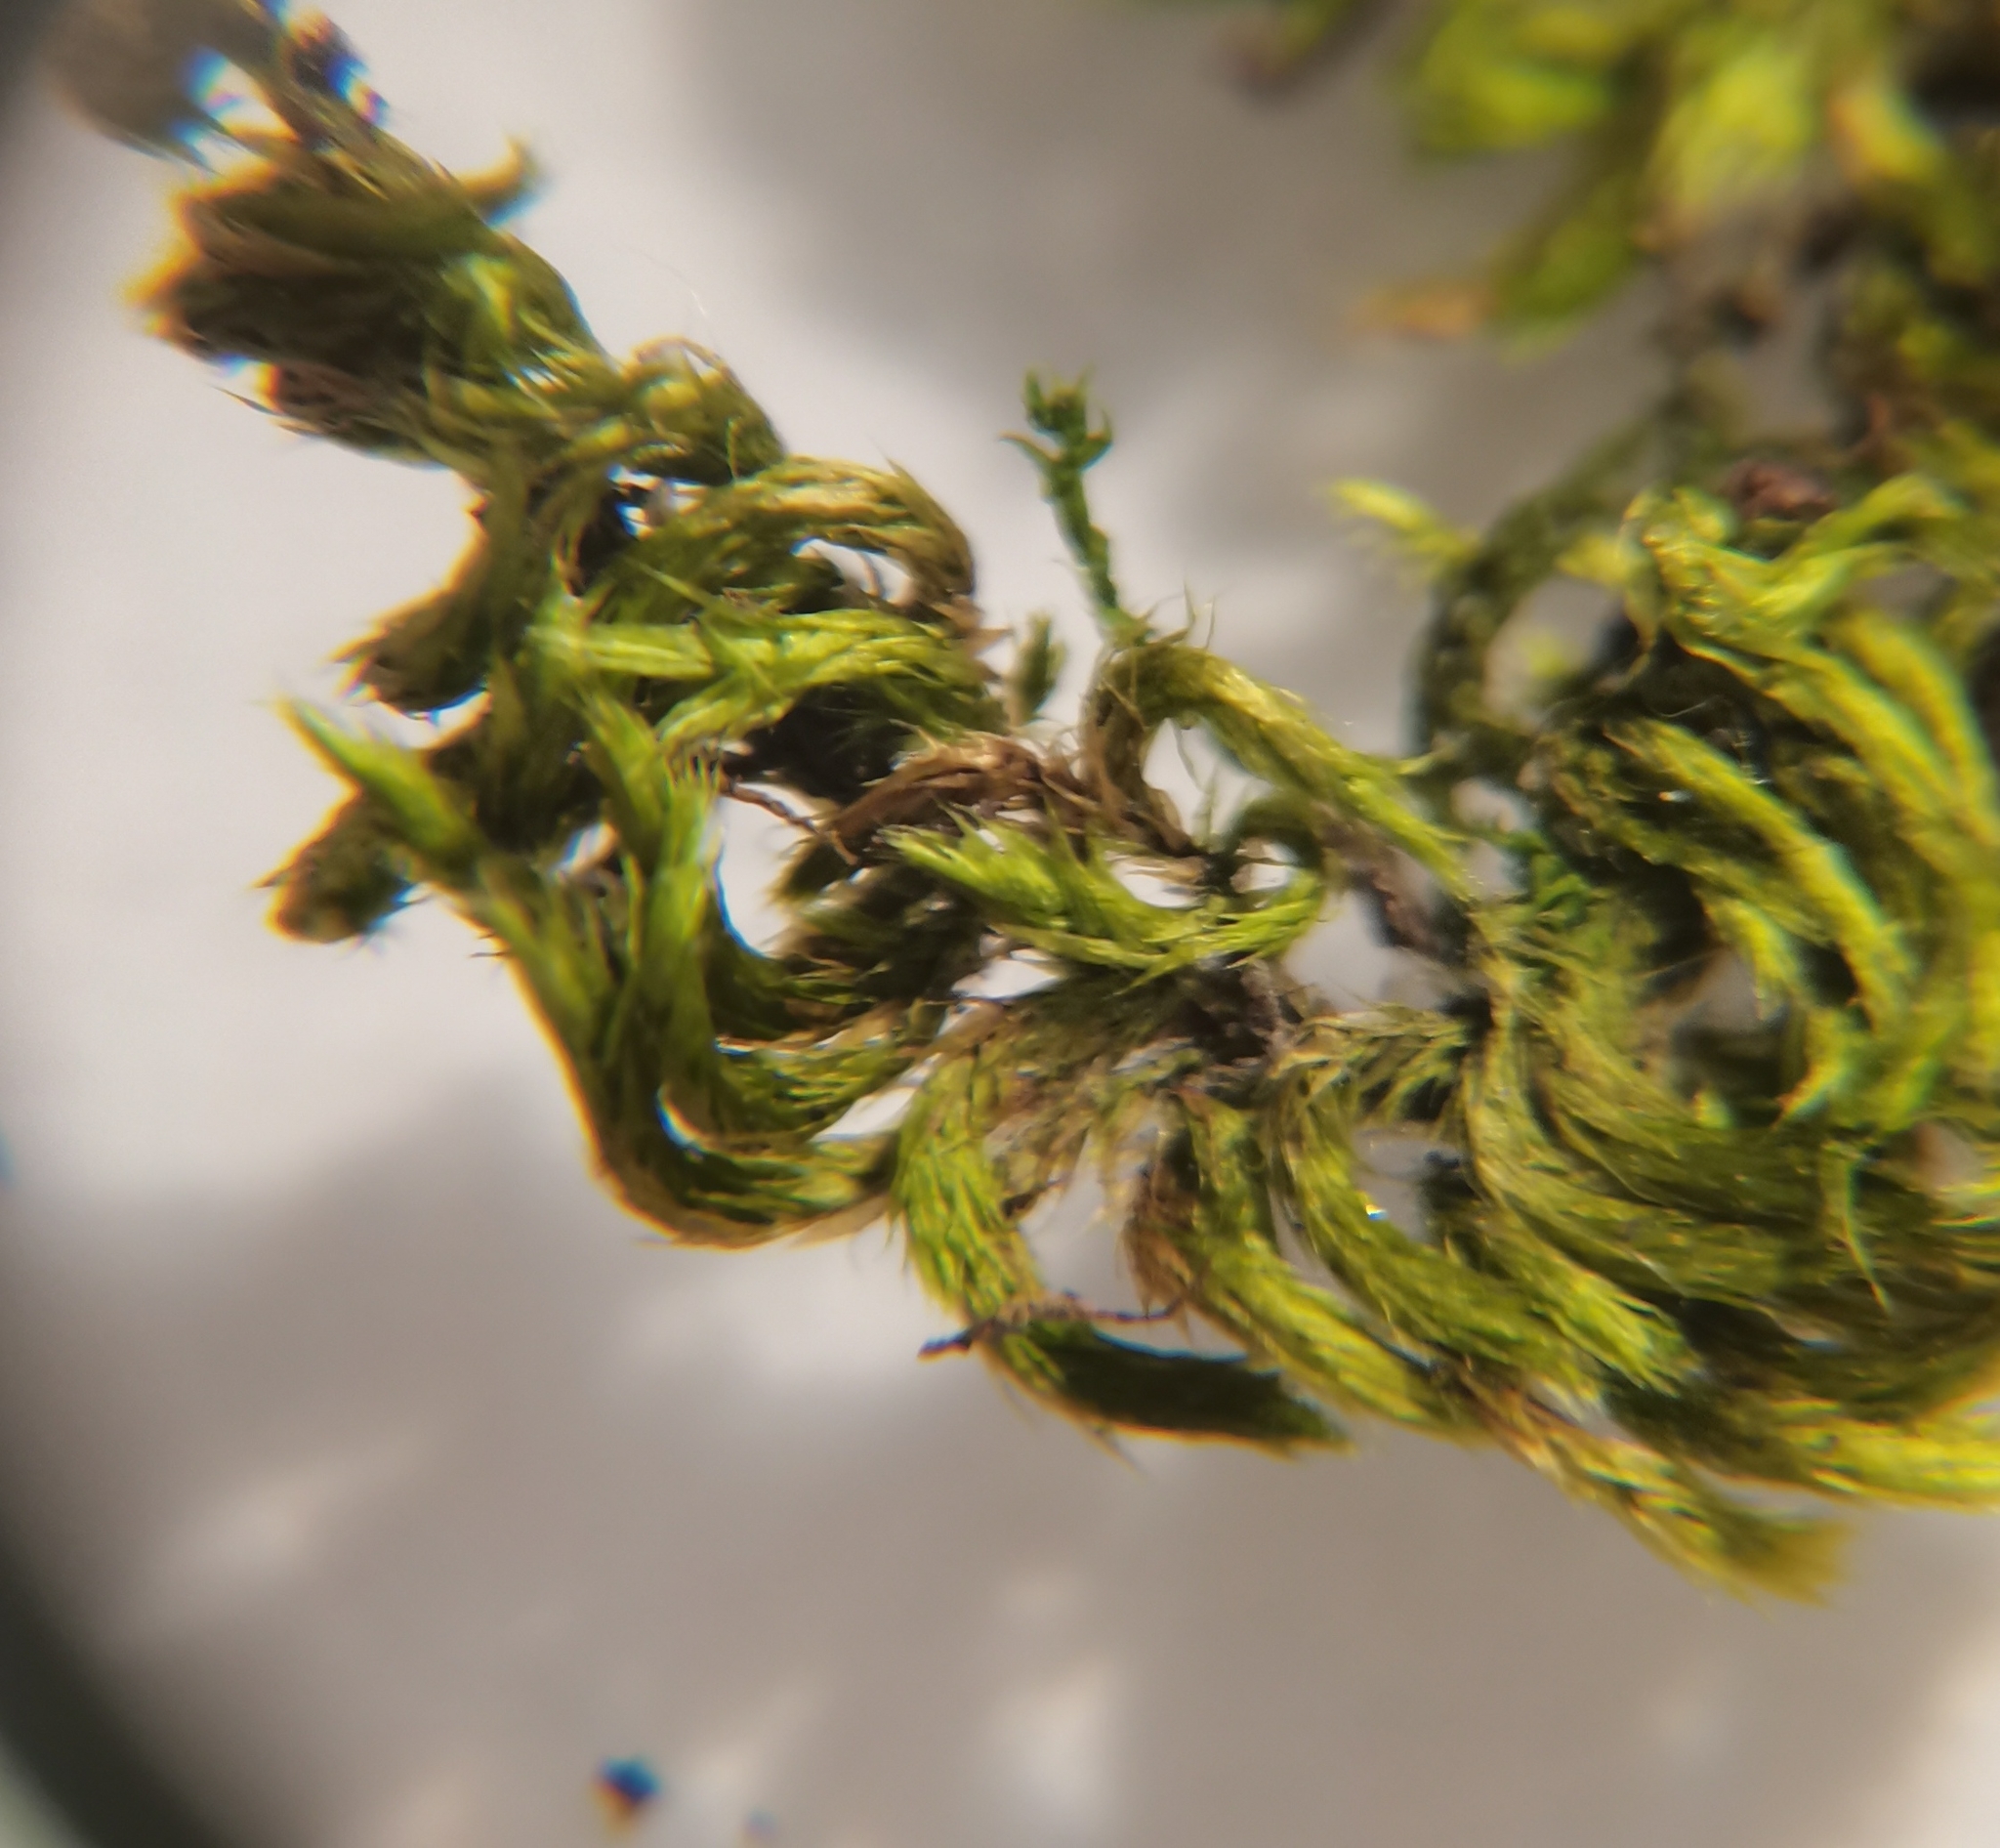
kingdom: Plantae
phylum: Bryophyta
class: Bryopsida
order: Hypnales
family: Brachytheciaceae
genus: Homalothecium
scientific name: Homalothecium sericeum
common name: Silky wall feather-moss
